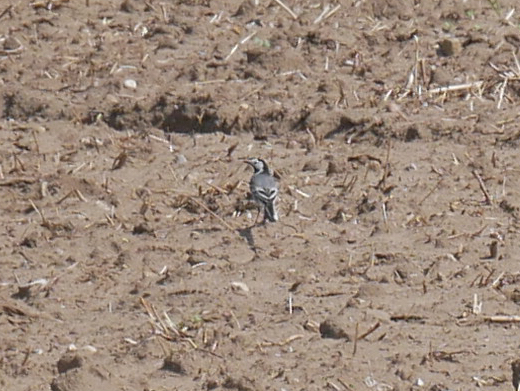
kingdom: Animalia
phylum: Chordata
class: Aves
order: Passeriformes
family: Motacillidae
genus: Motacilla
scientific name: Motacilla alba
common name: White wagtail
